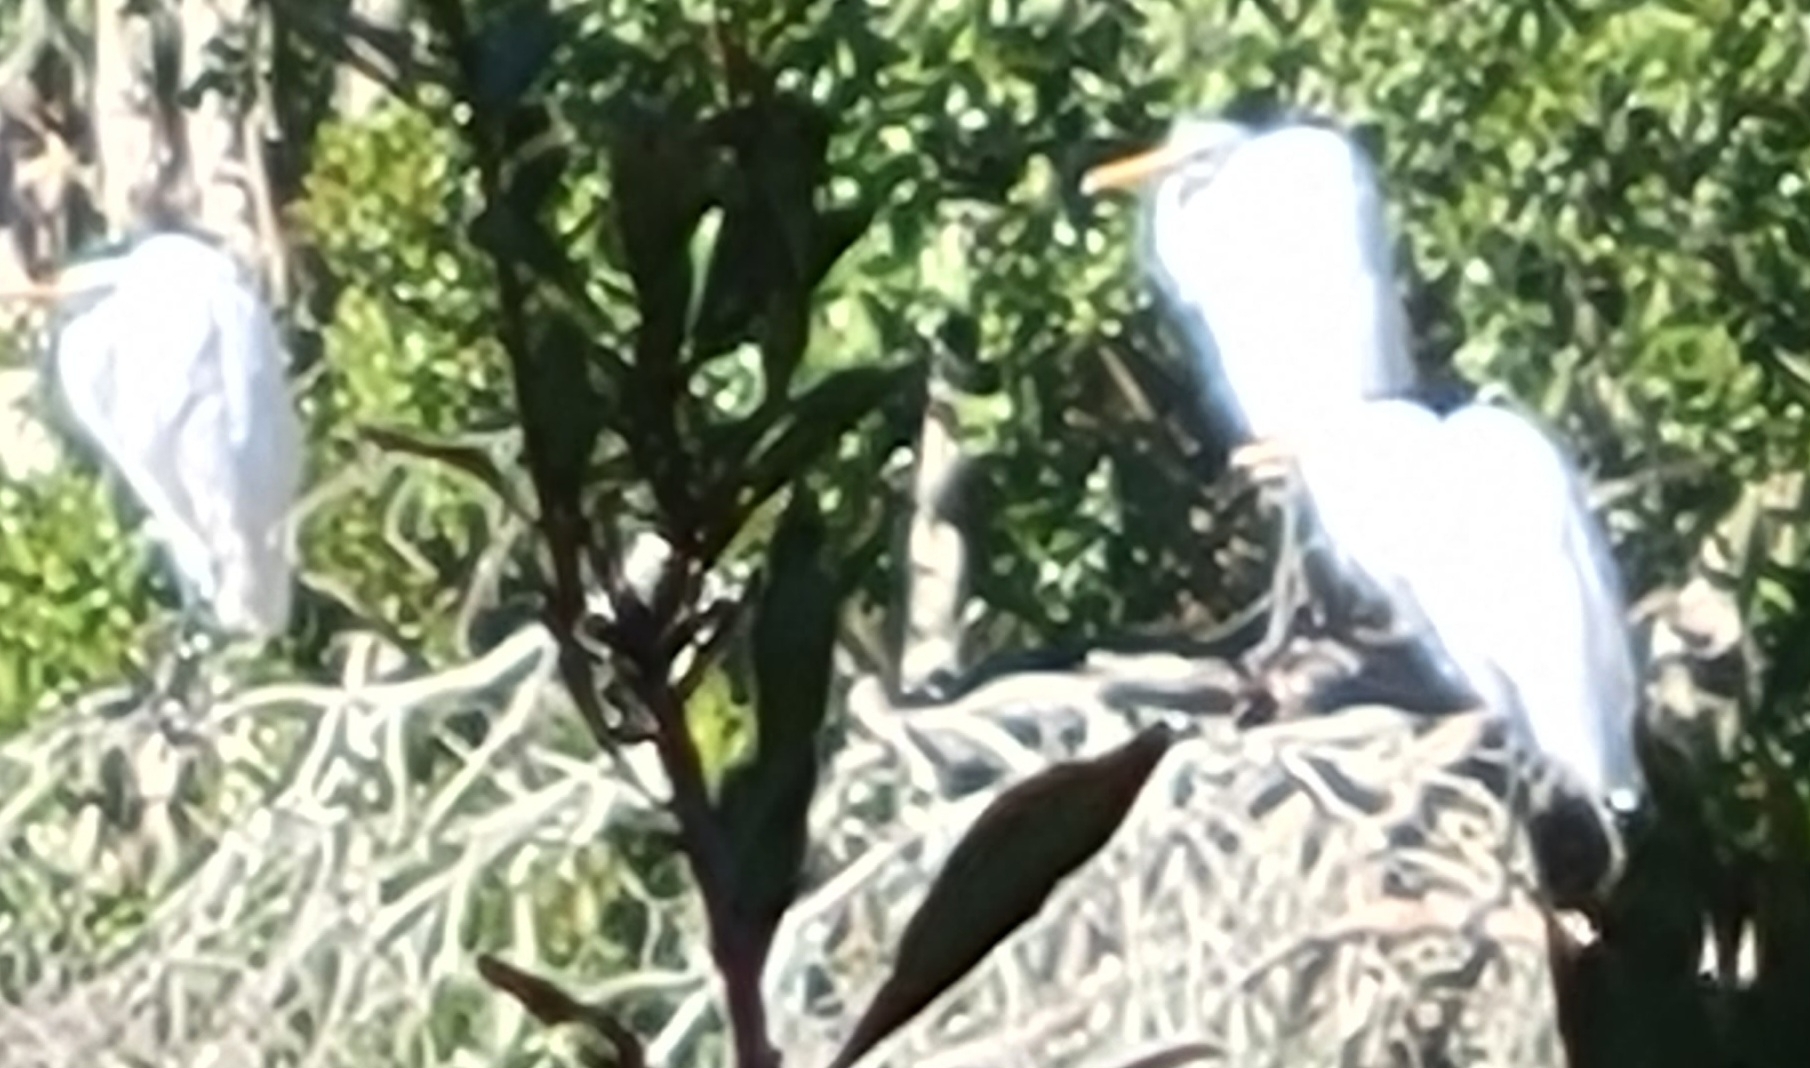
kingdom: Animalia
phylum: Chordata
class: Aves
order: Pelecaniformes
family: Ardeidae
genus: Ardea
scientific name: Ardea alba
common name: Great egret
